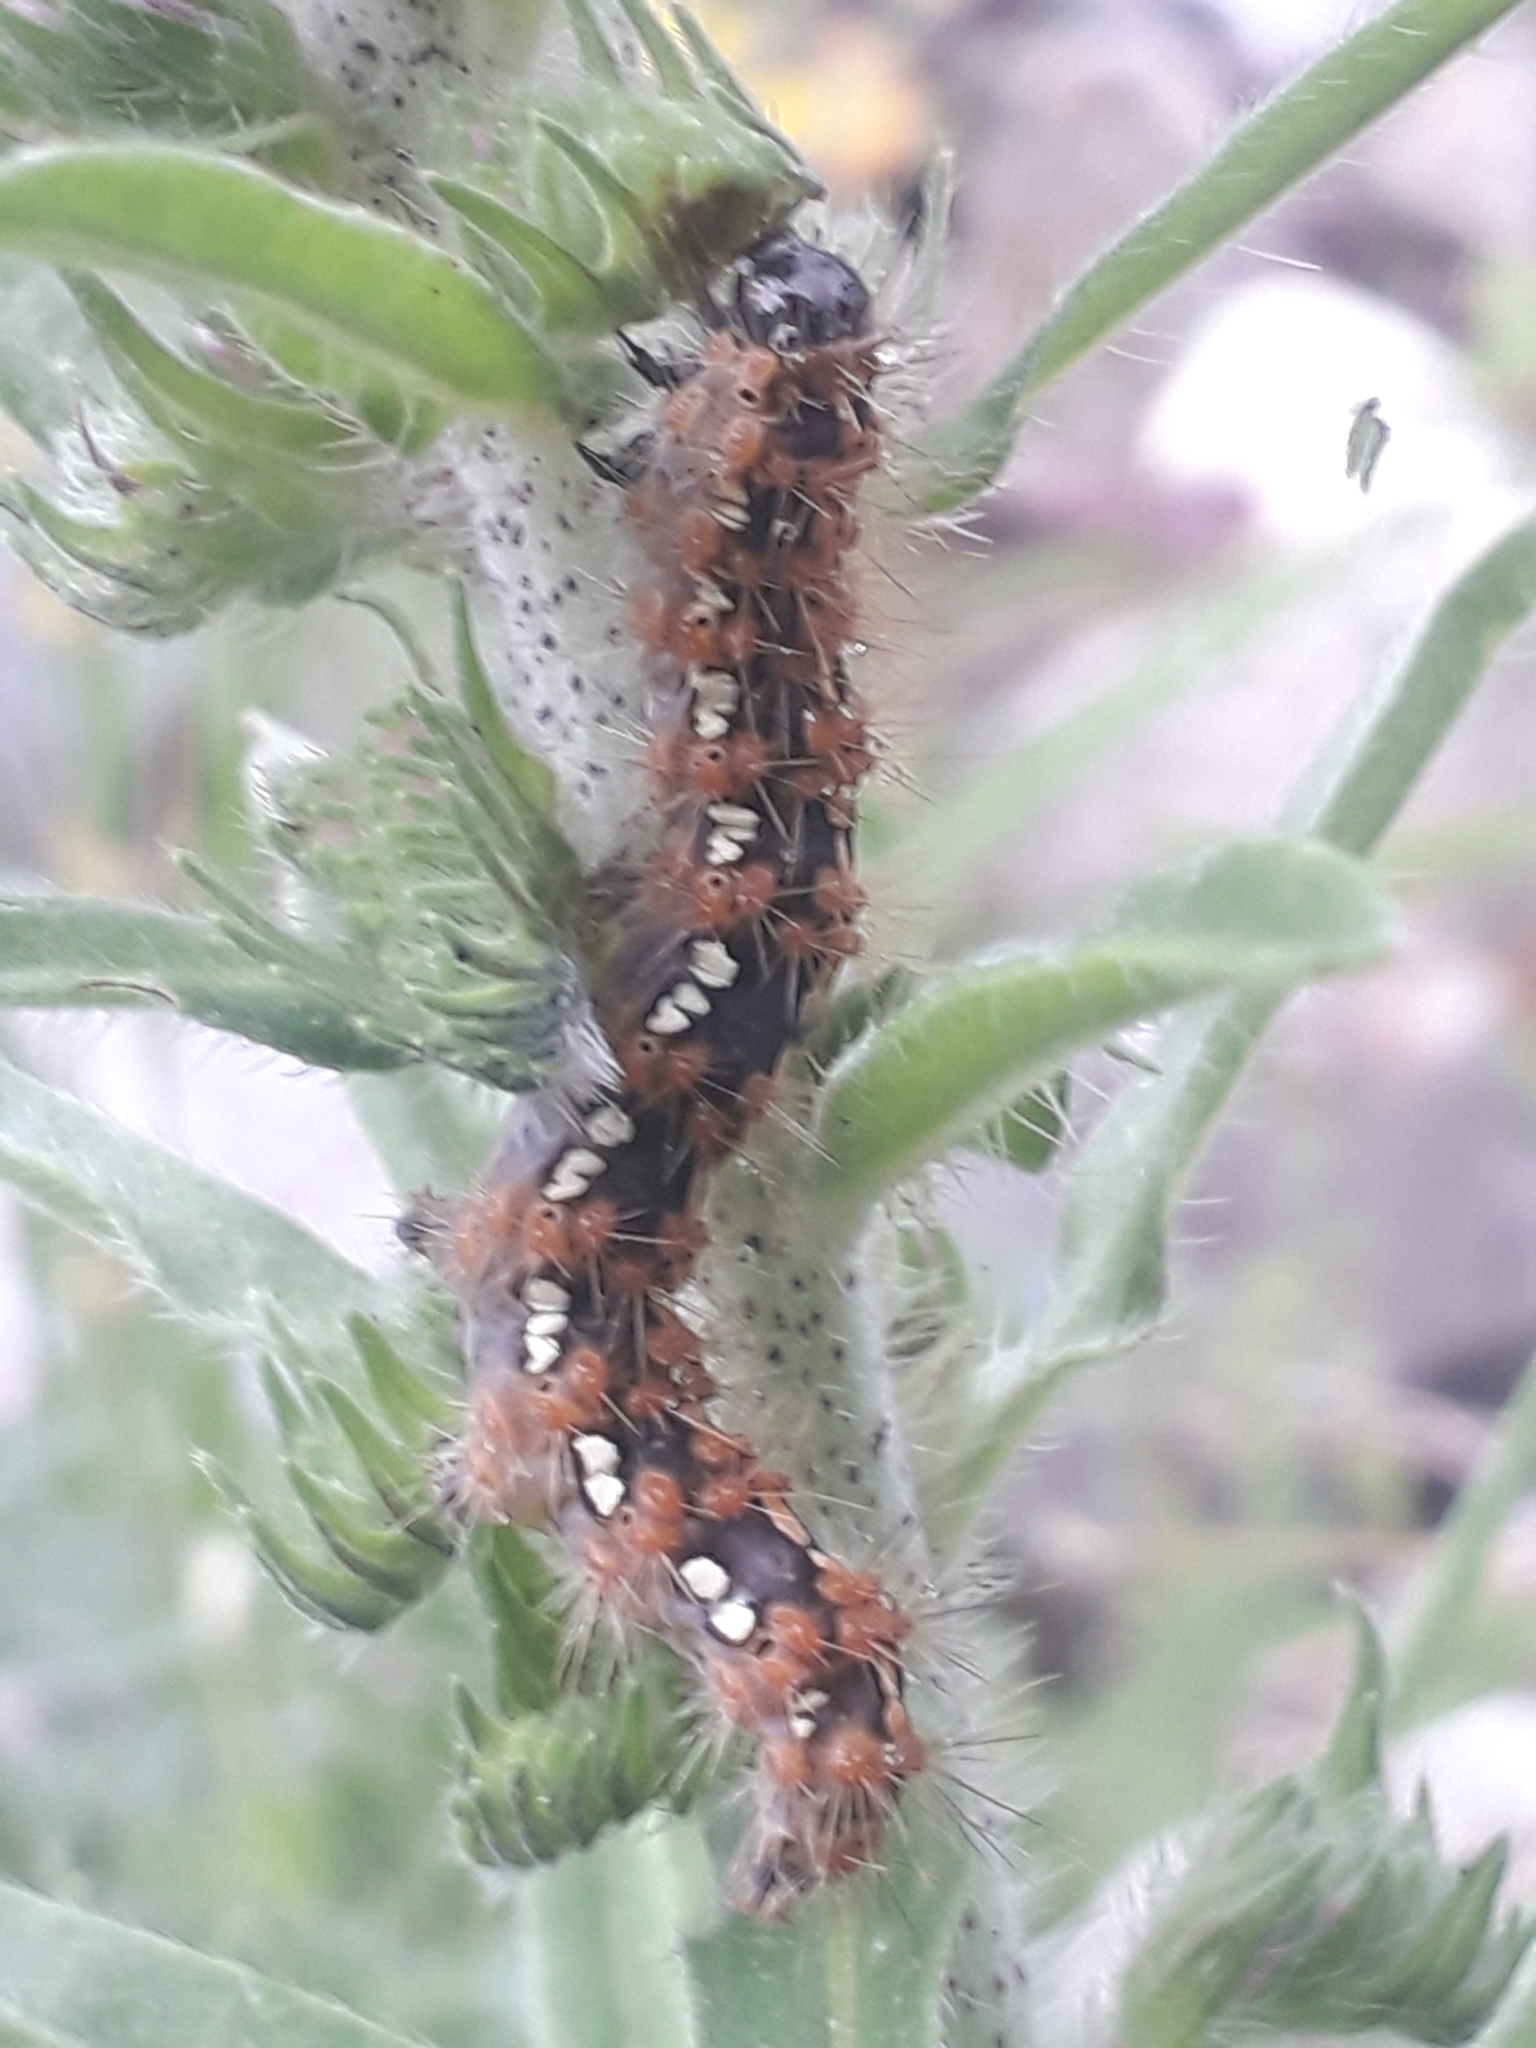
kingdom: Animalia
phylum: Arthropoda
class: Insecta
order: Lepidoptera
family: Erebidae
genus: Euplagia
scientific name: Euplagia quadripunctaria
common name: Jersey tiger
